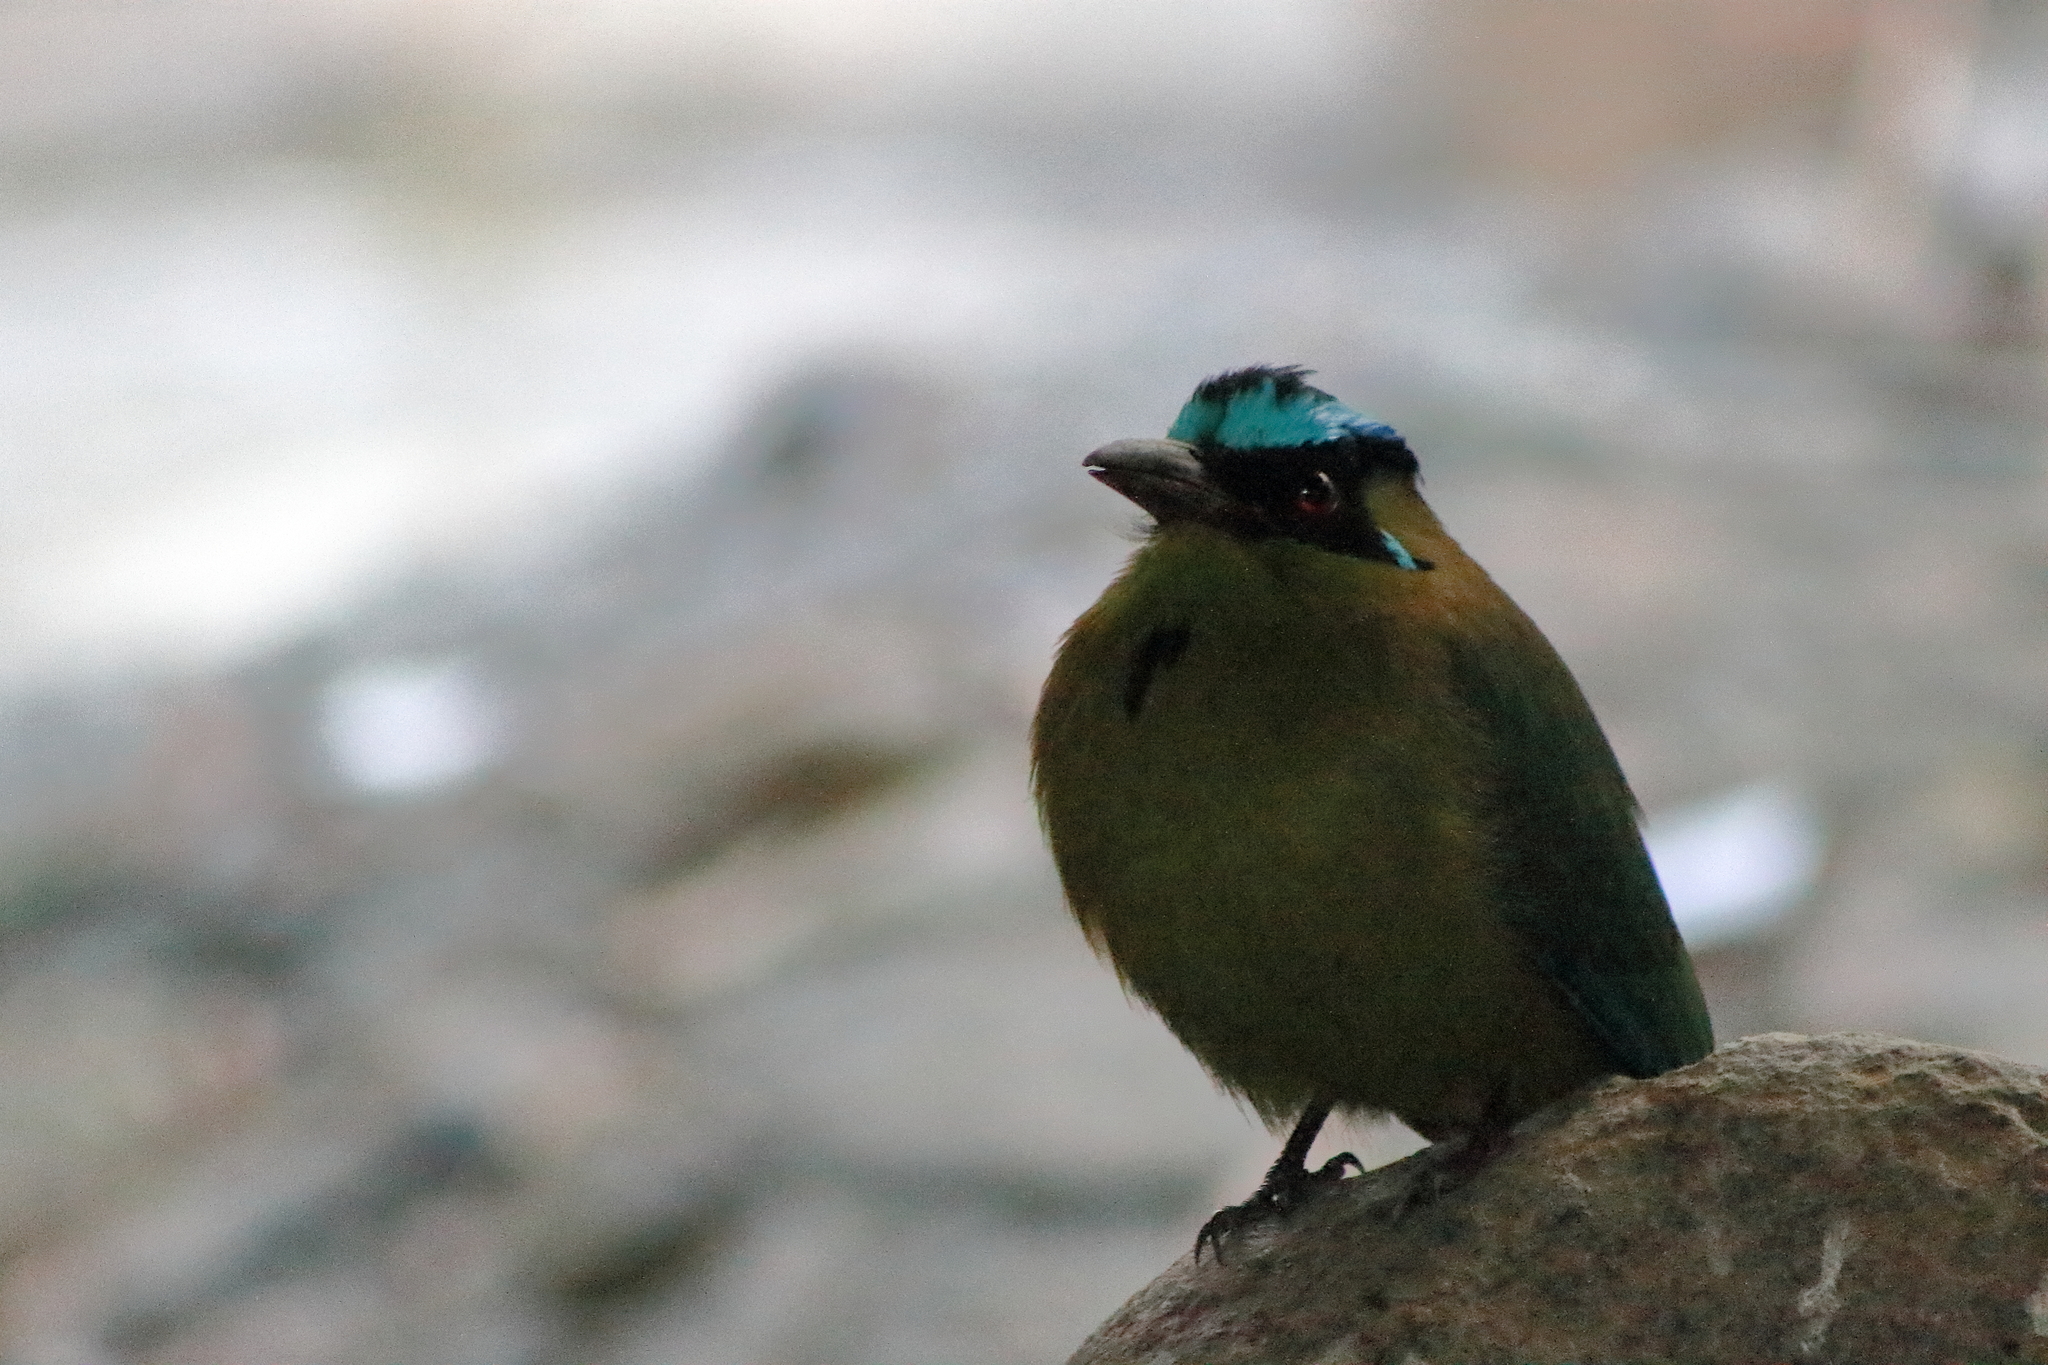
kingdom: Animalia
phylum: Chordata
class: Aves
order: Coraciiformes
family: Momotidae
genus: Momotus
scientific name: Momotus aequatorialis
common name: Andean motmot
